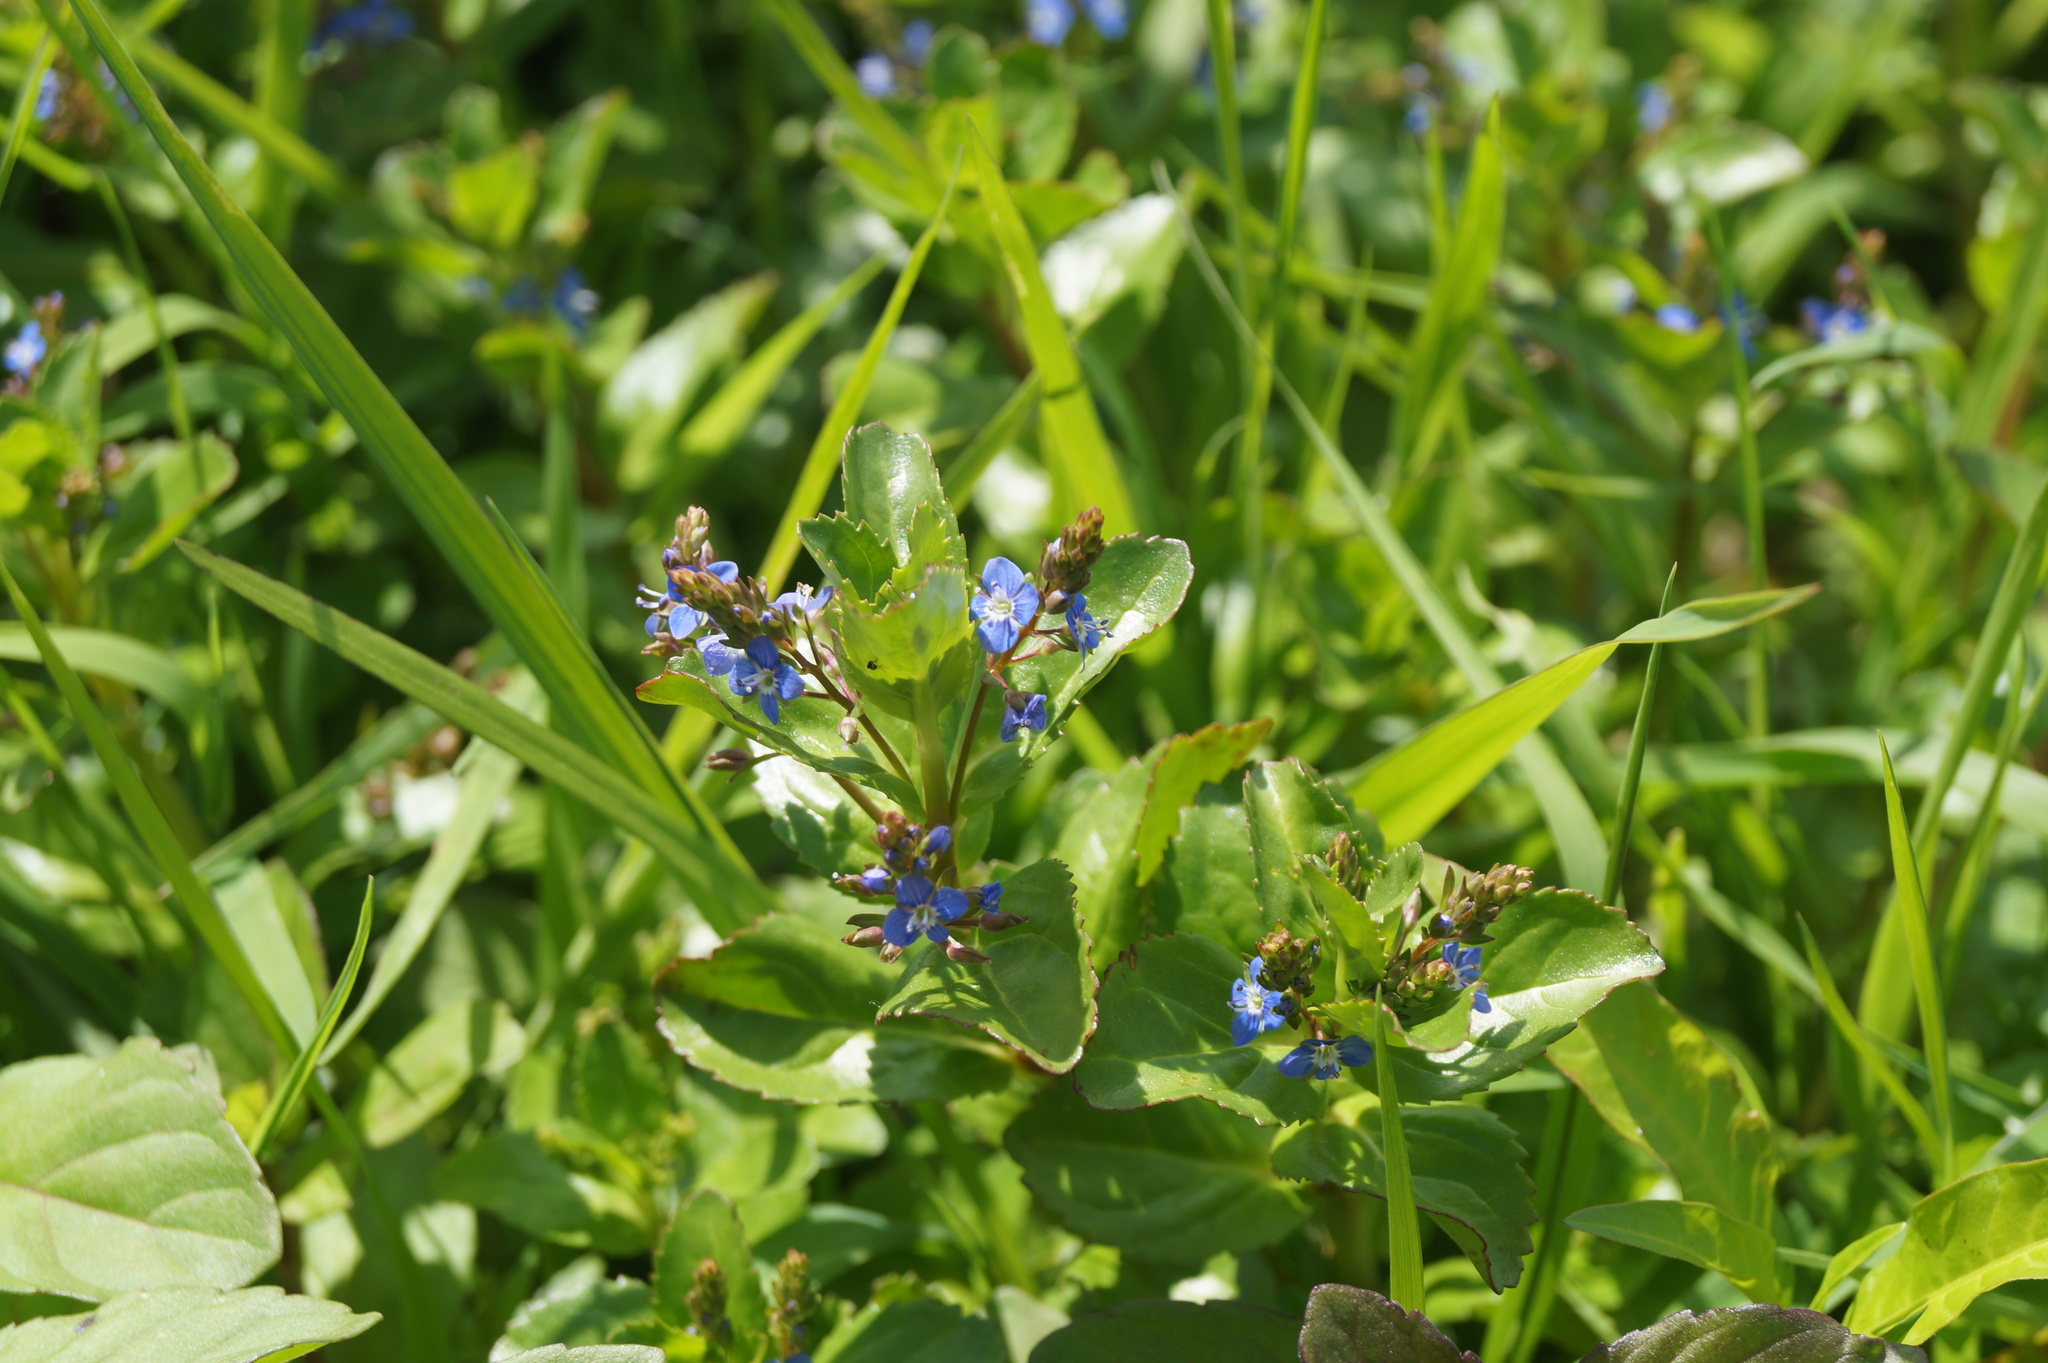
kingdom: Plantae
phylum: Tracheophyta
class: Magnoliopsida
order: Lamiales
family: Plantaginaceae
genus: Veronica
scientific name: Veronica beccabunga
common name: Brooklime
